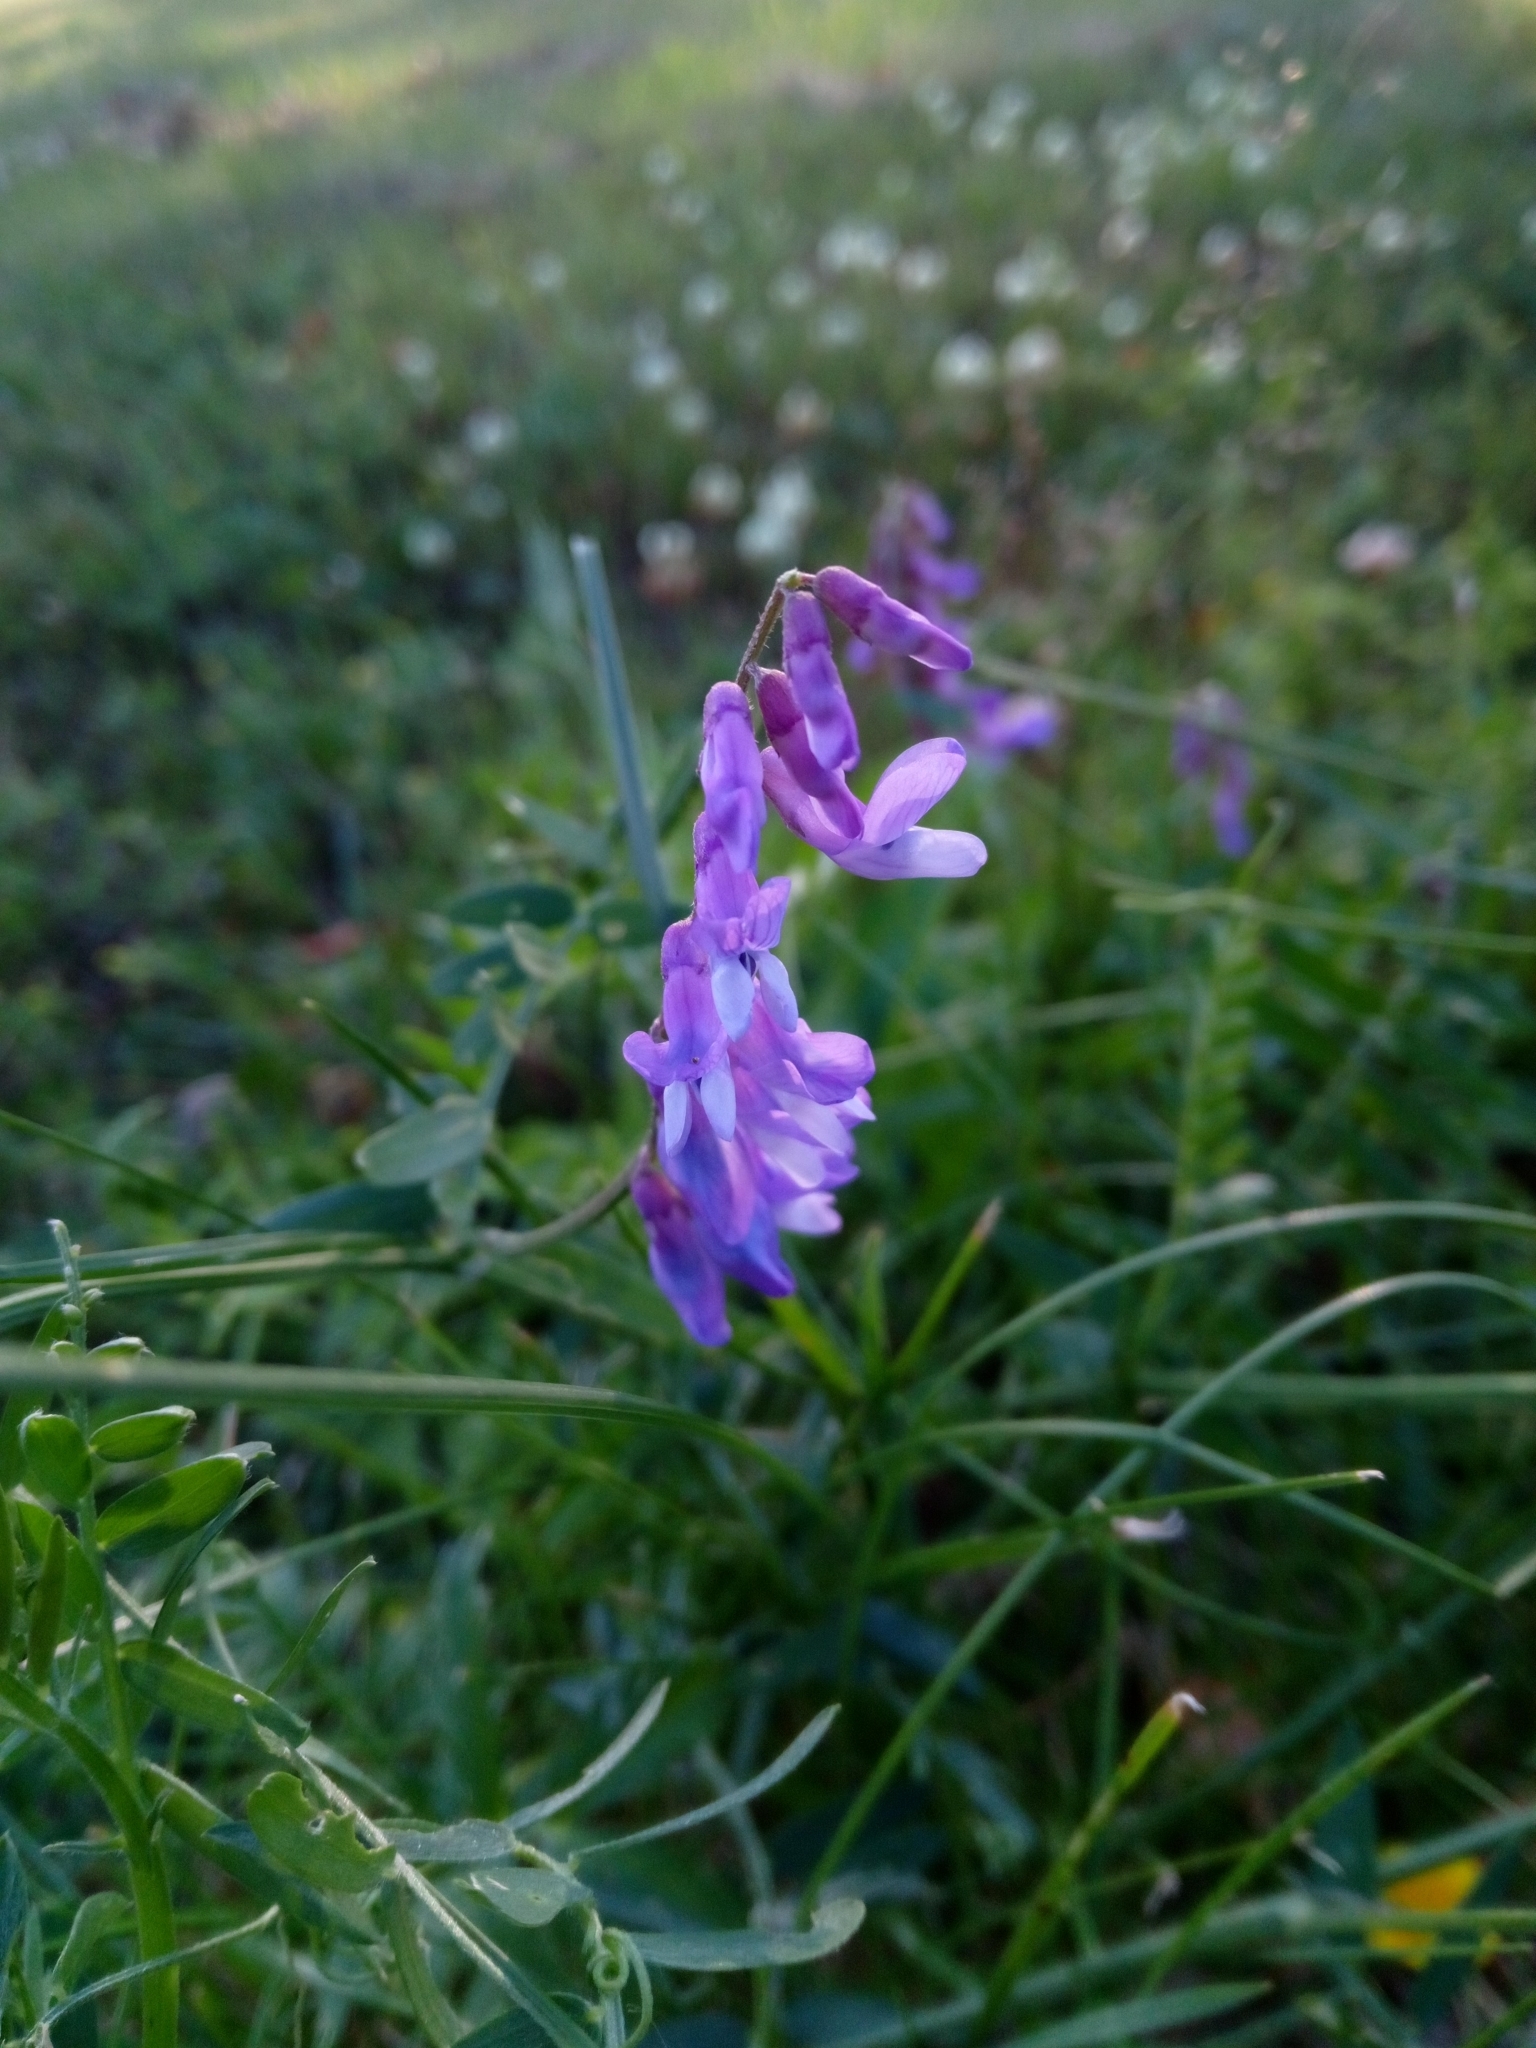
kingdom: Plantae
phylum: Tracheophyta
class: Magnoliopsida
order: Fabales
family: Fabaceae
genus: Vicia
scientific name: Vicia cracca
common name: Bird vetch
